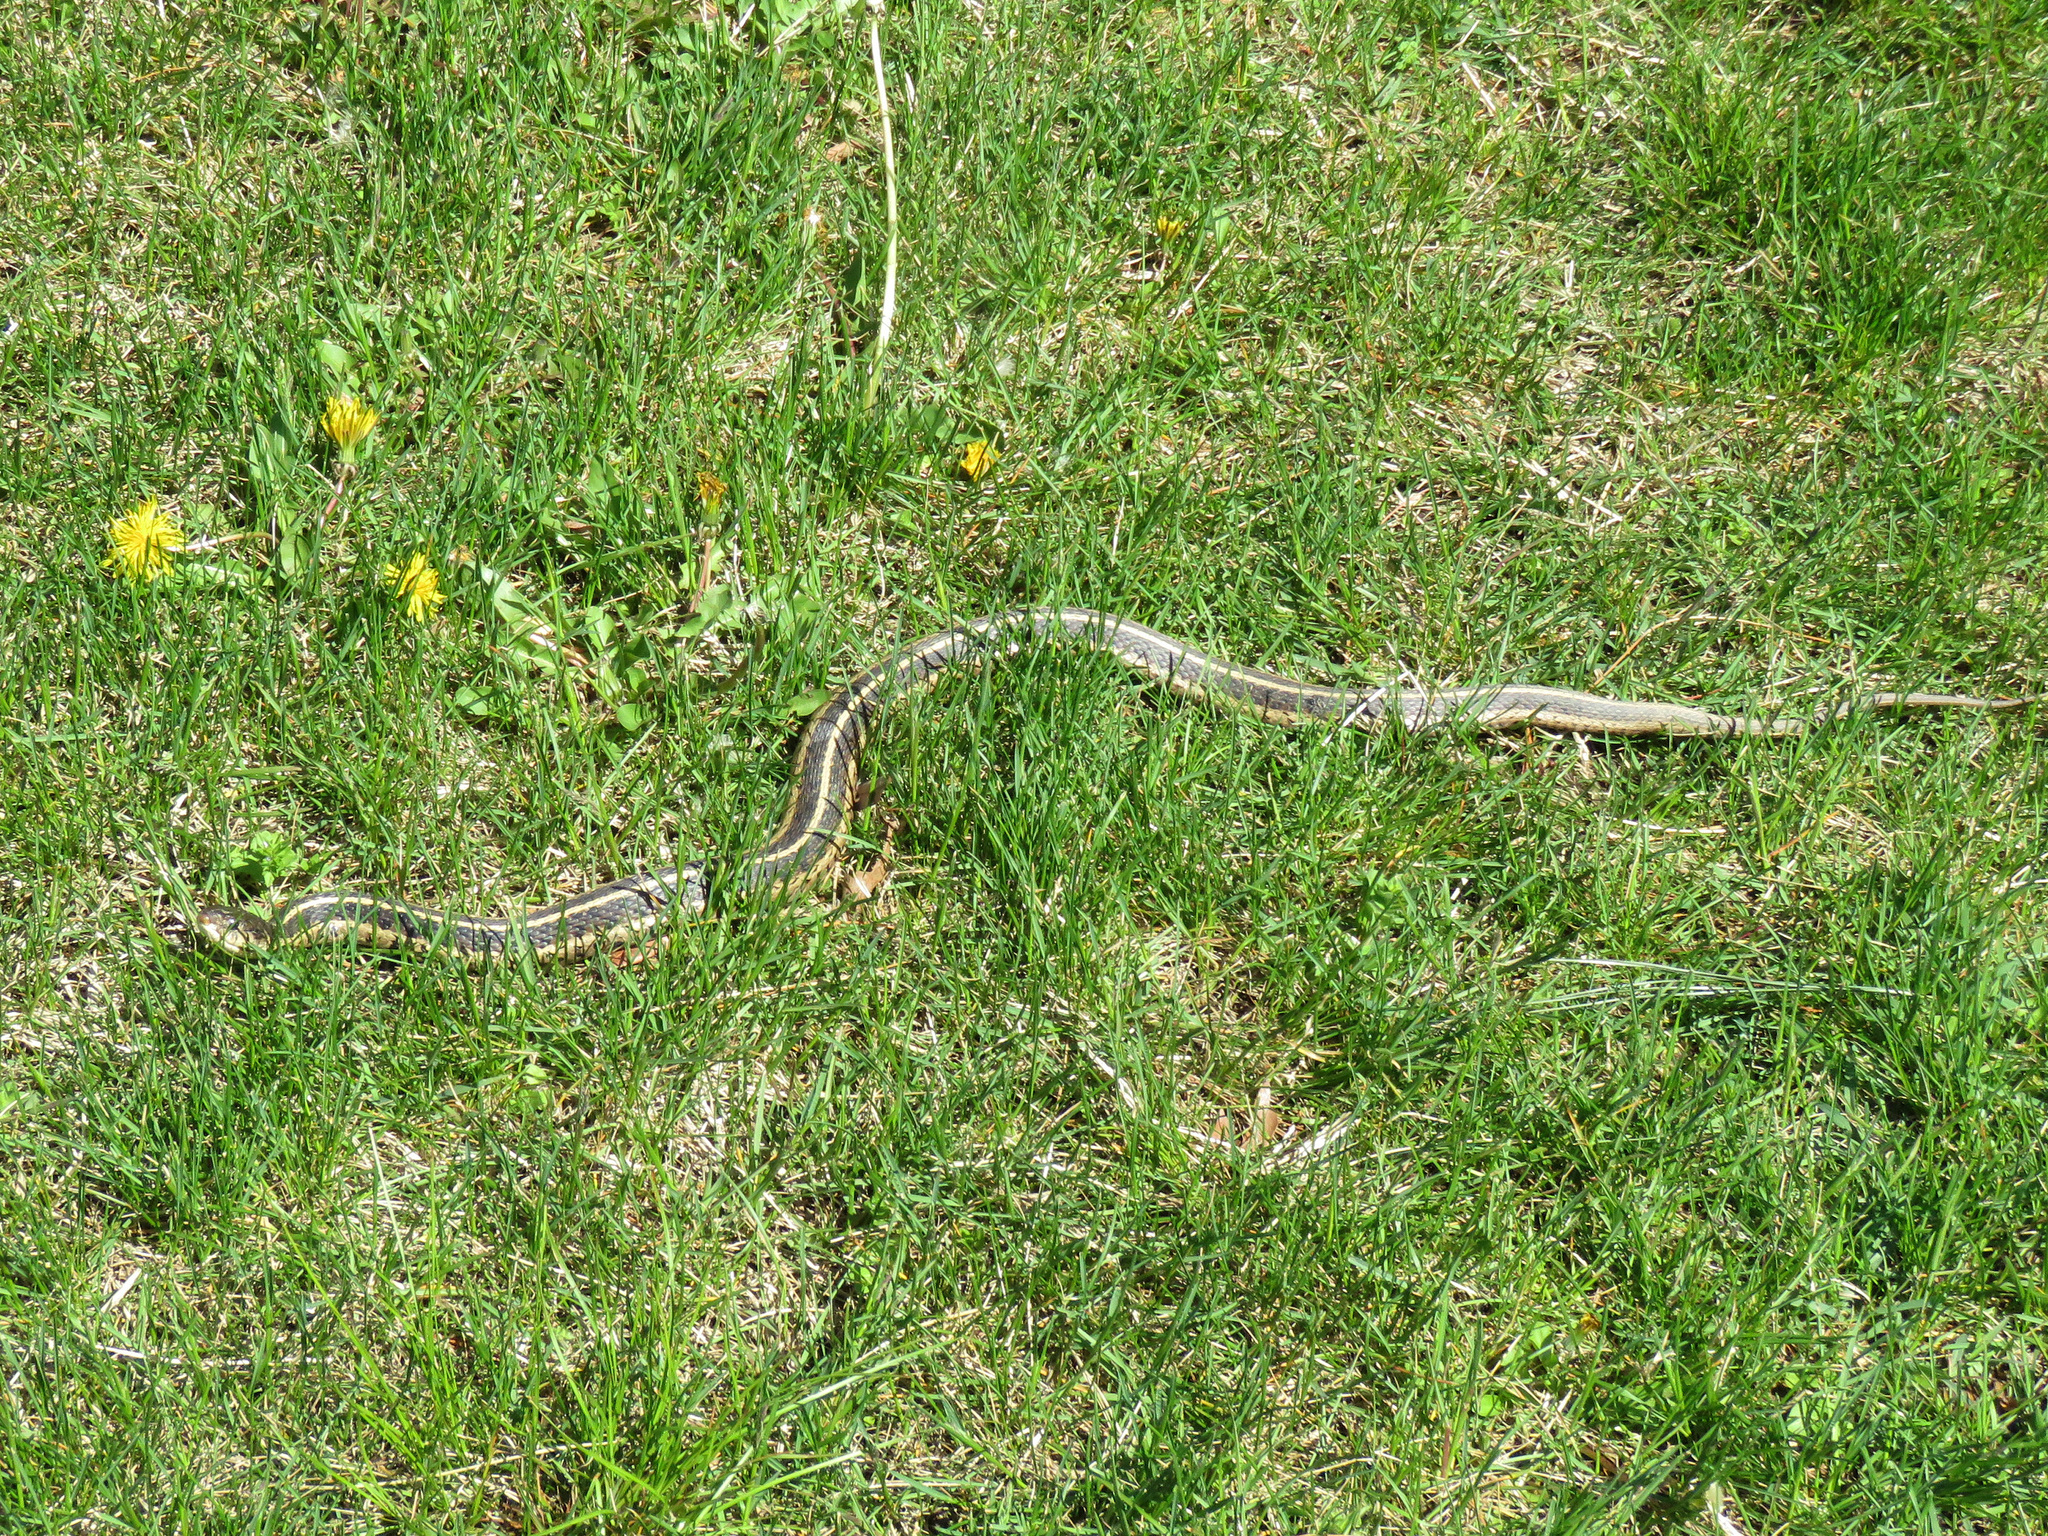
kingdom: Animalia
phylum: Chordata
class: Squamata
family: Colubridae
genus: Thamnophis
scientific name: Thamnophis sirtalis
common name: Common garter snake
